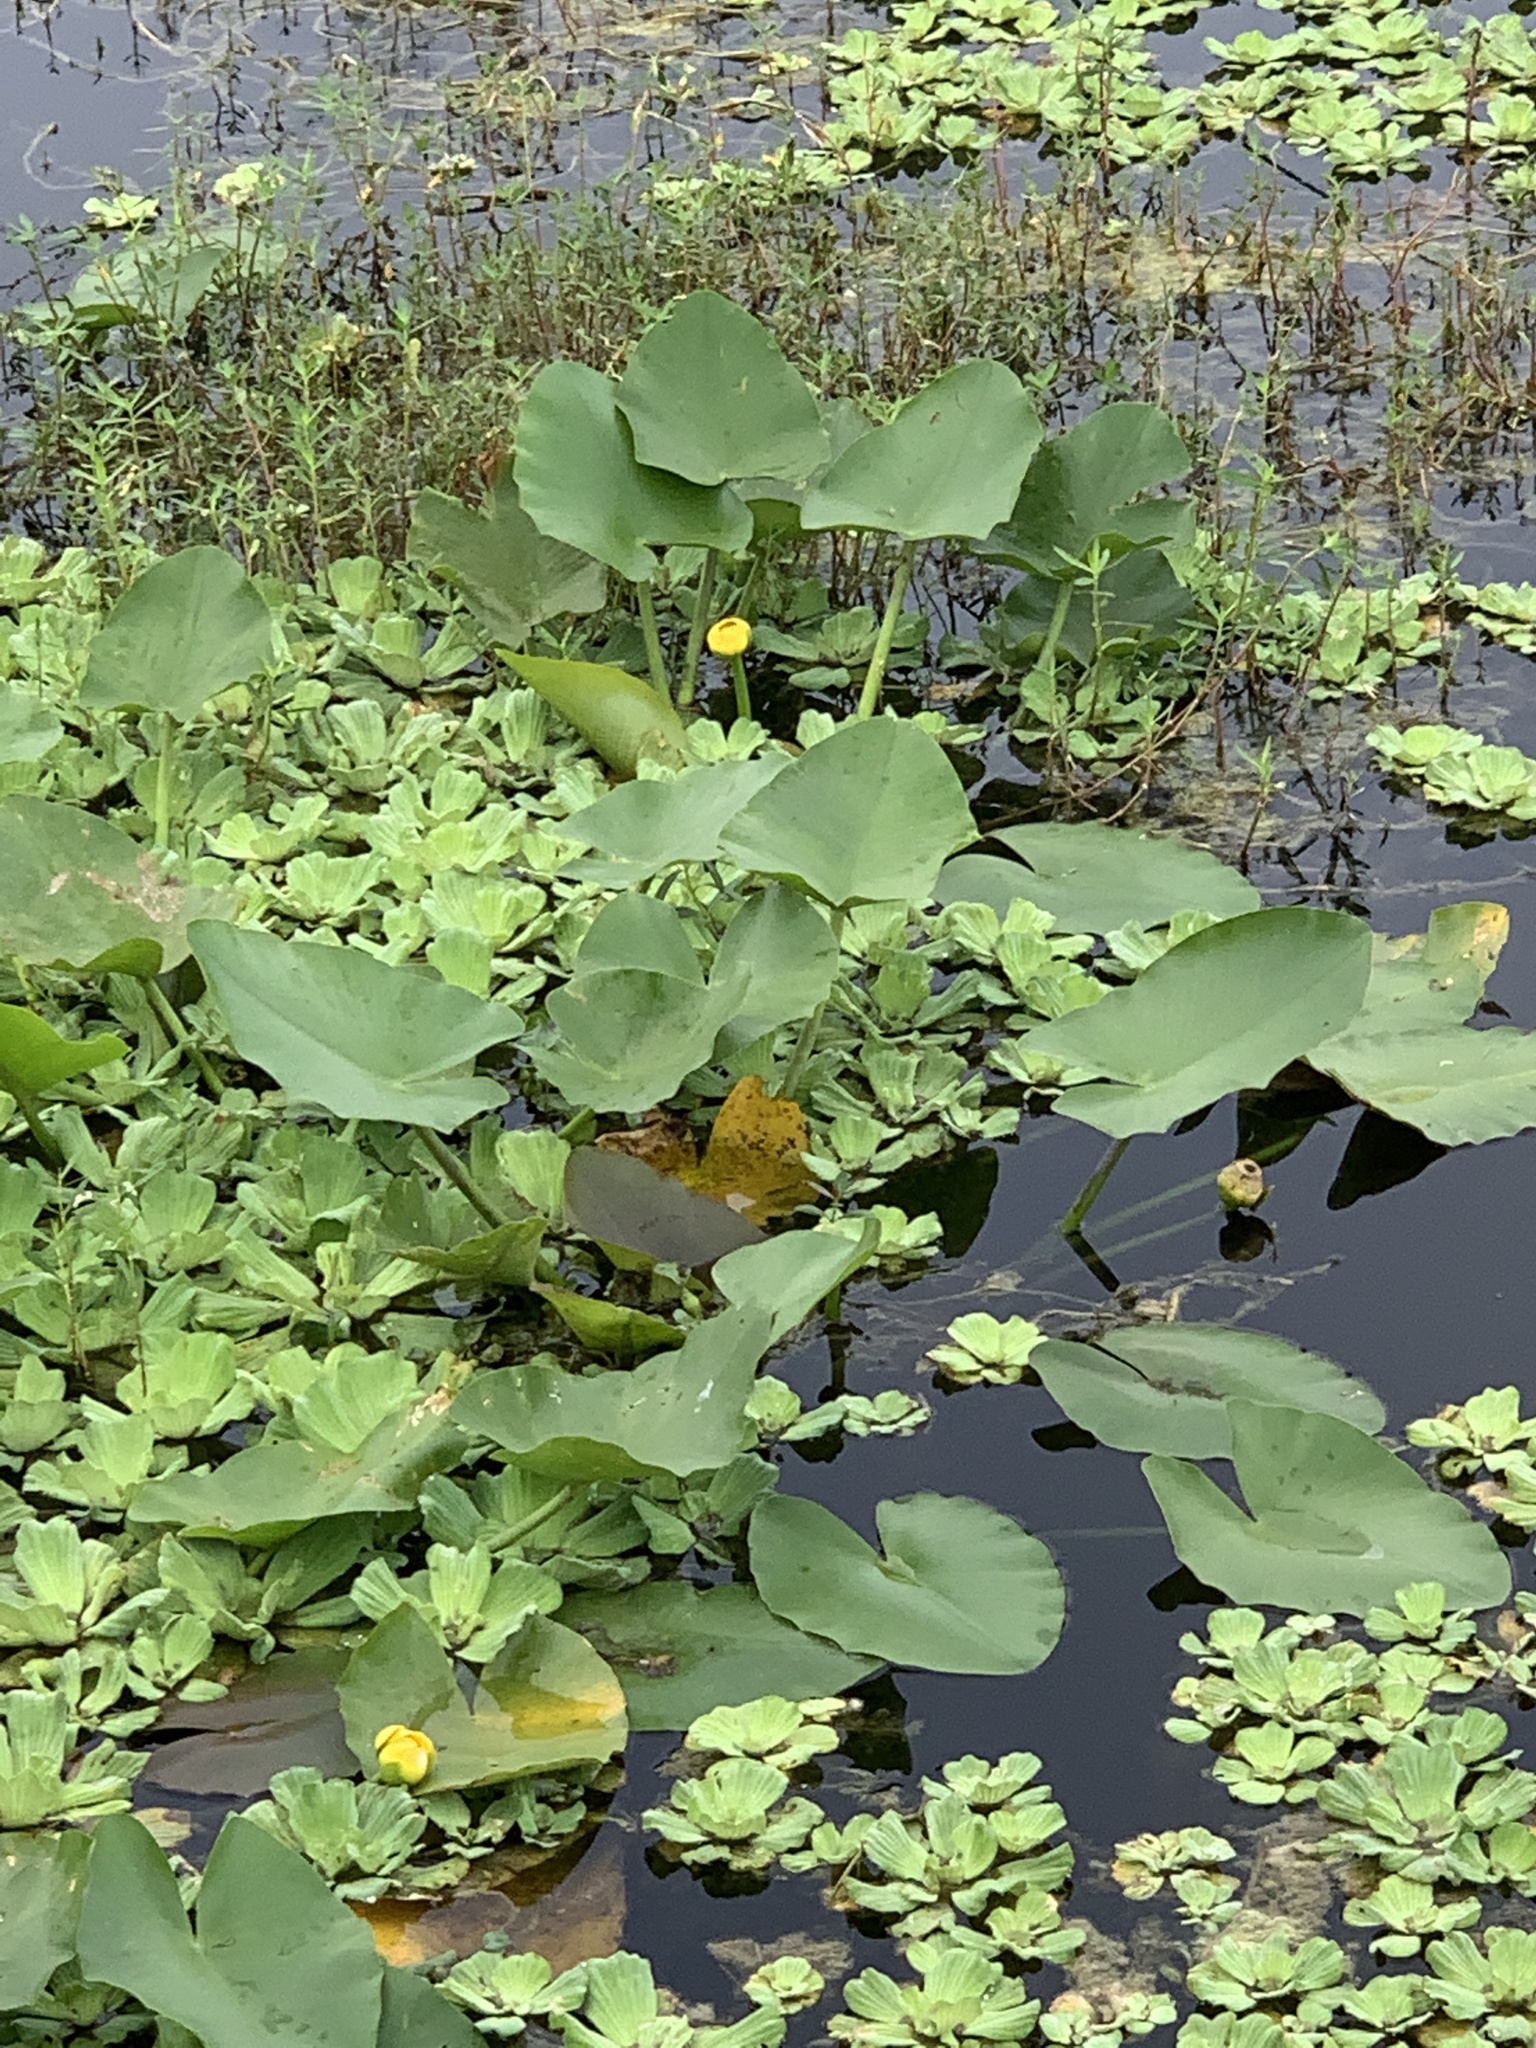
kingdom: Plantae
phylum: Tracheophyta
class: Magnoliopsida
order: Nymphaeales
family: Nymphaeaceae
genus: Nuphar
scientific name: Nuphar advena
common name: Spatter-dock
